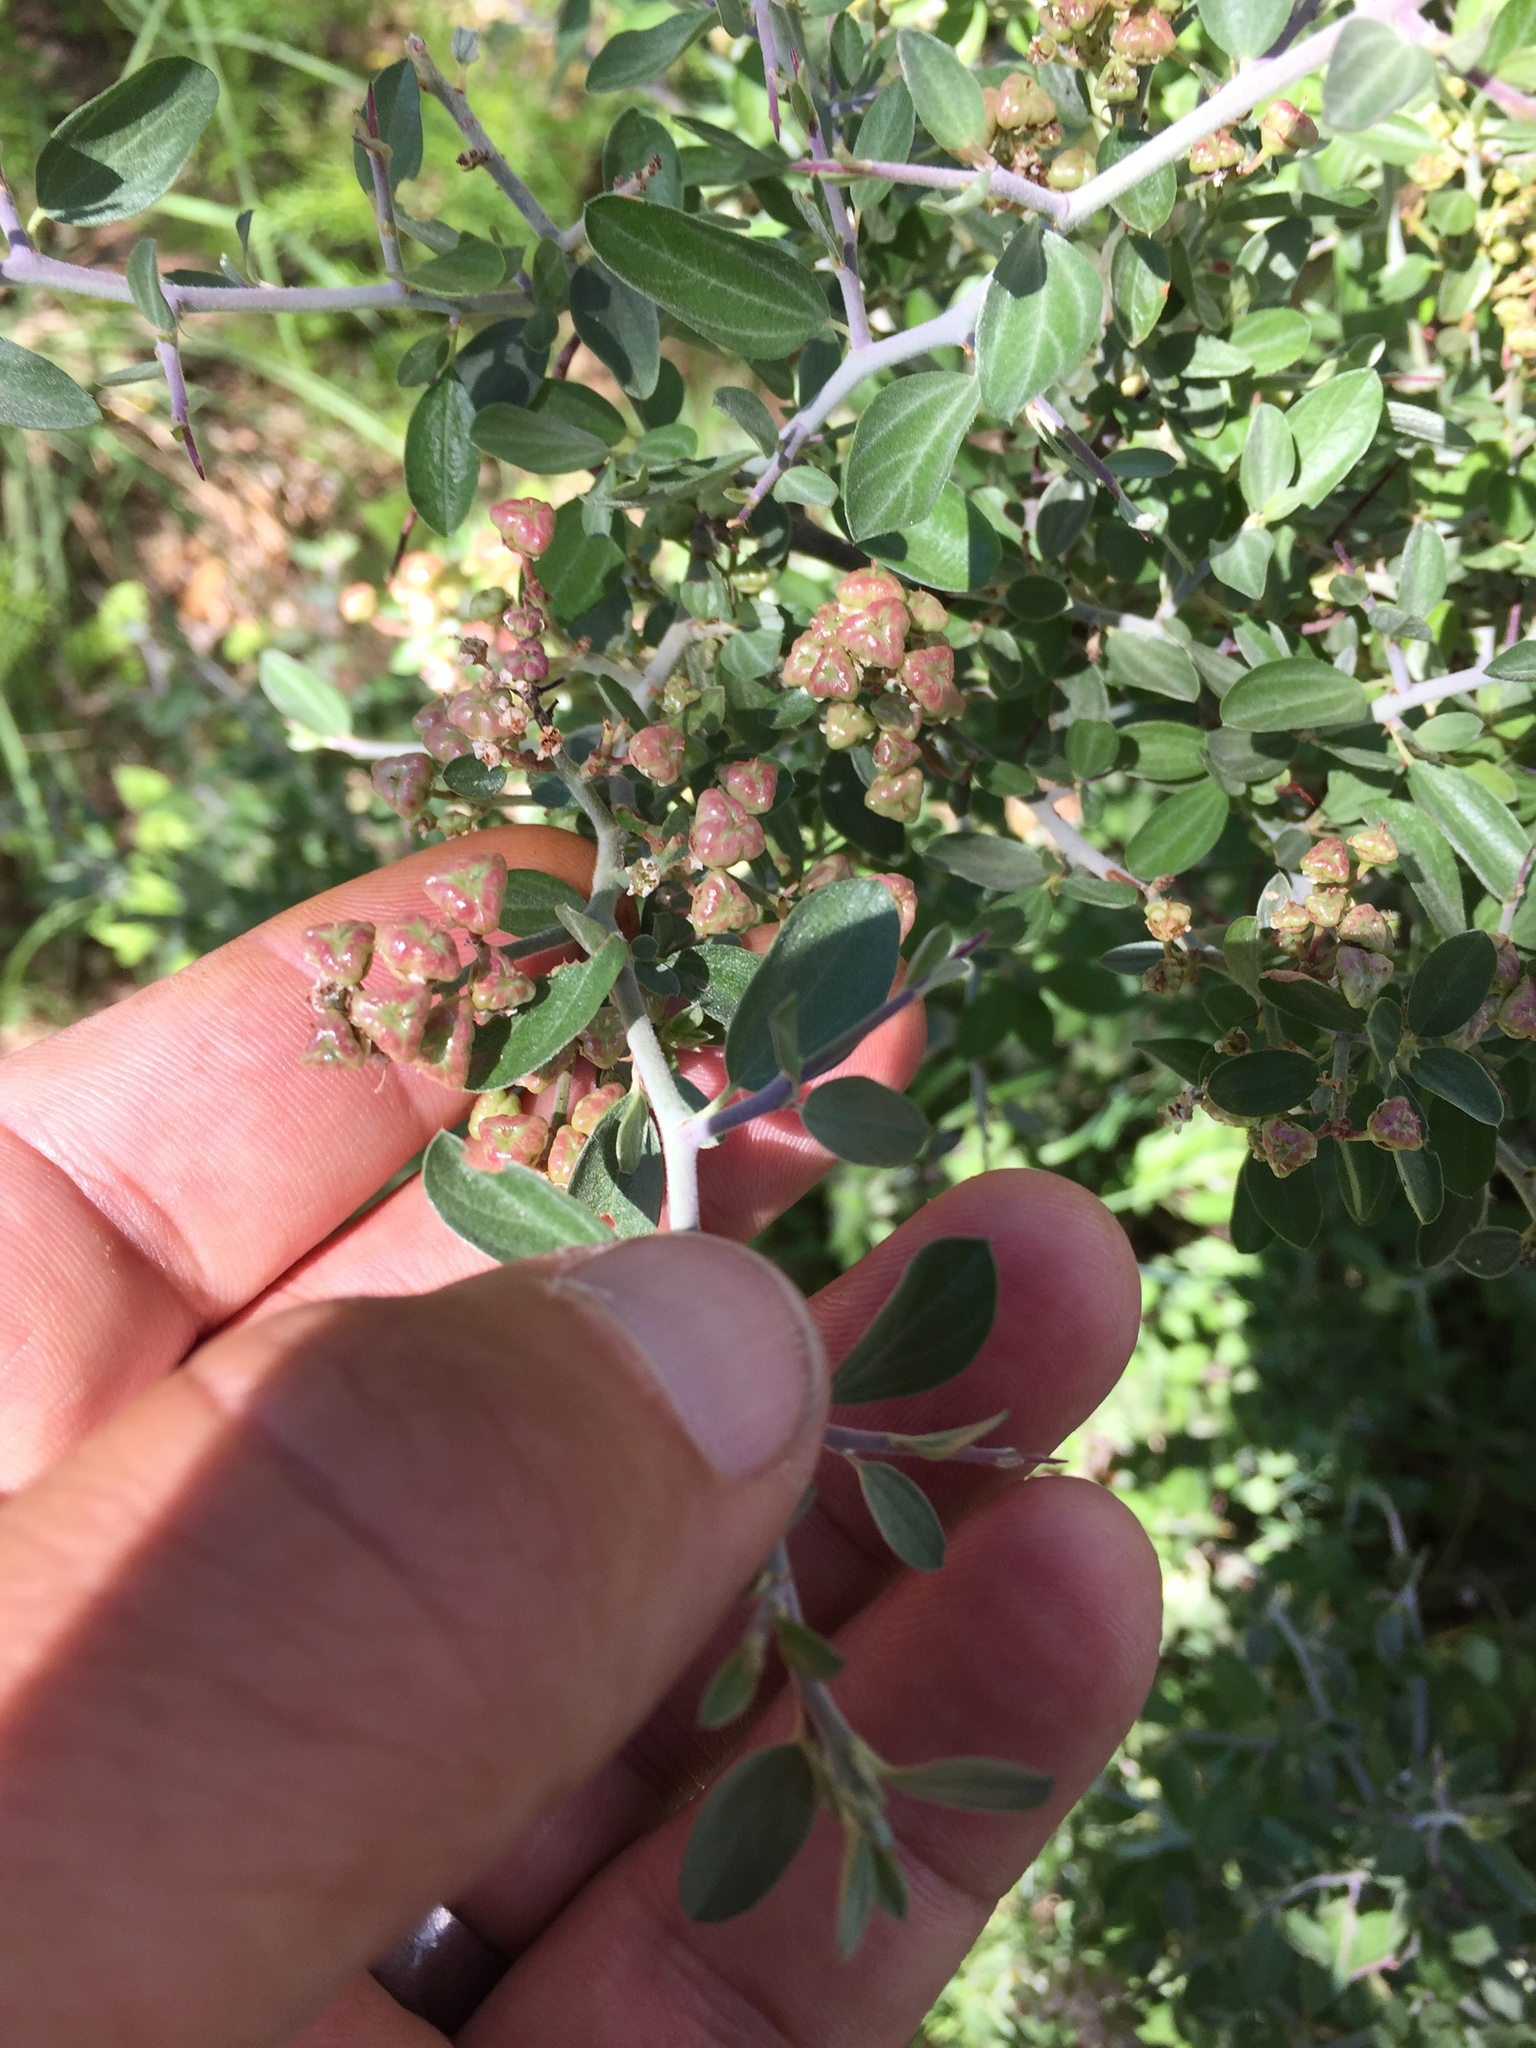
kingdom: Plantae
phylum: Tracheophyta
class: Magnoliopsida
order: Rosales
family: Rhamnaceae
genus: Ceanothus
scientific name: Ceanothus fendleri
